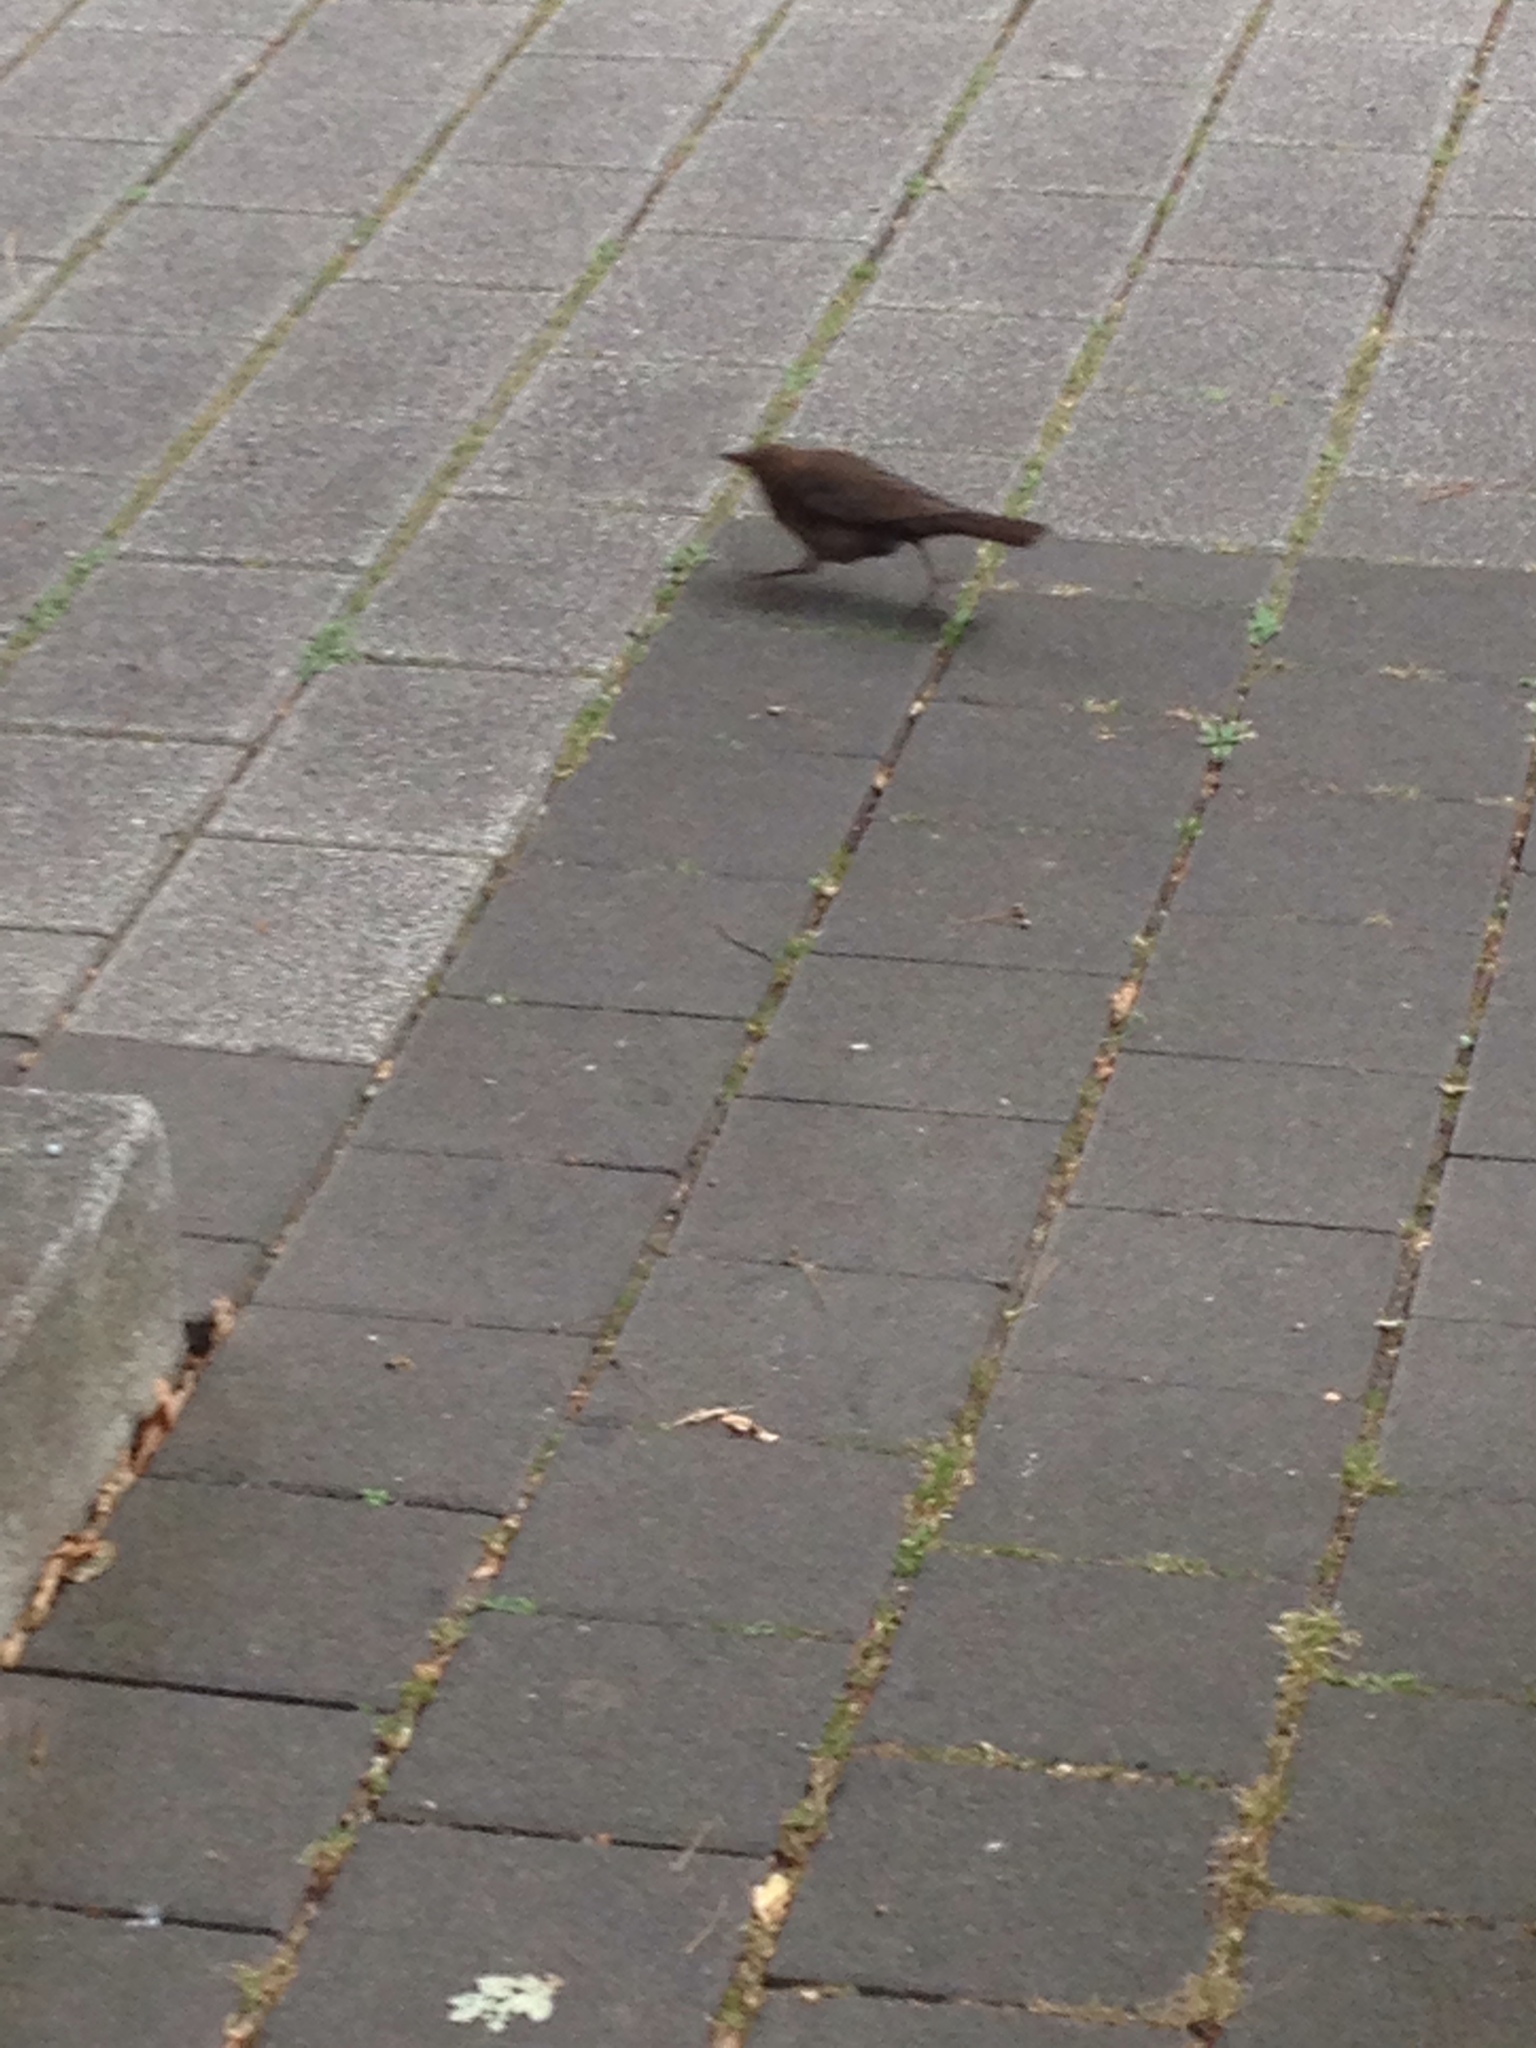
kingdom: Animalia
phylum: Chordata
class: Aves
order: Passeriformes
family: Turdidae
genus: Turdus
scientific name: Turdus merula
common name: Common blackbird
